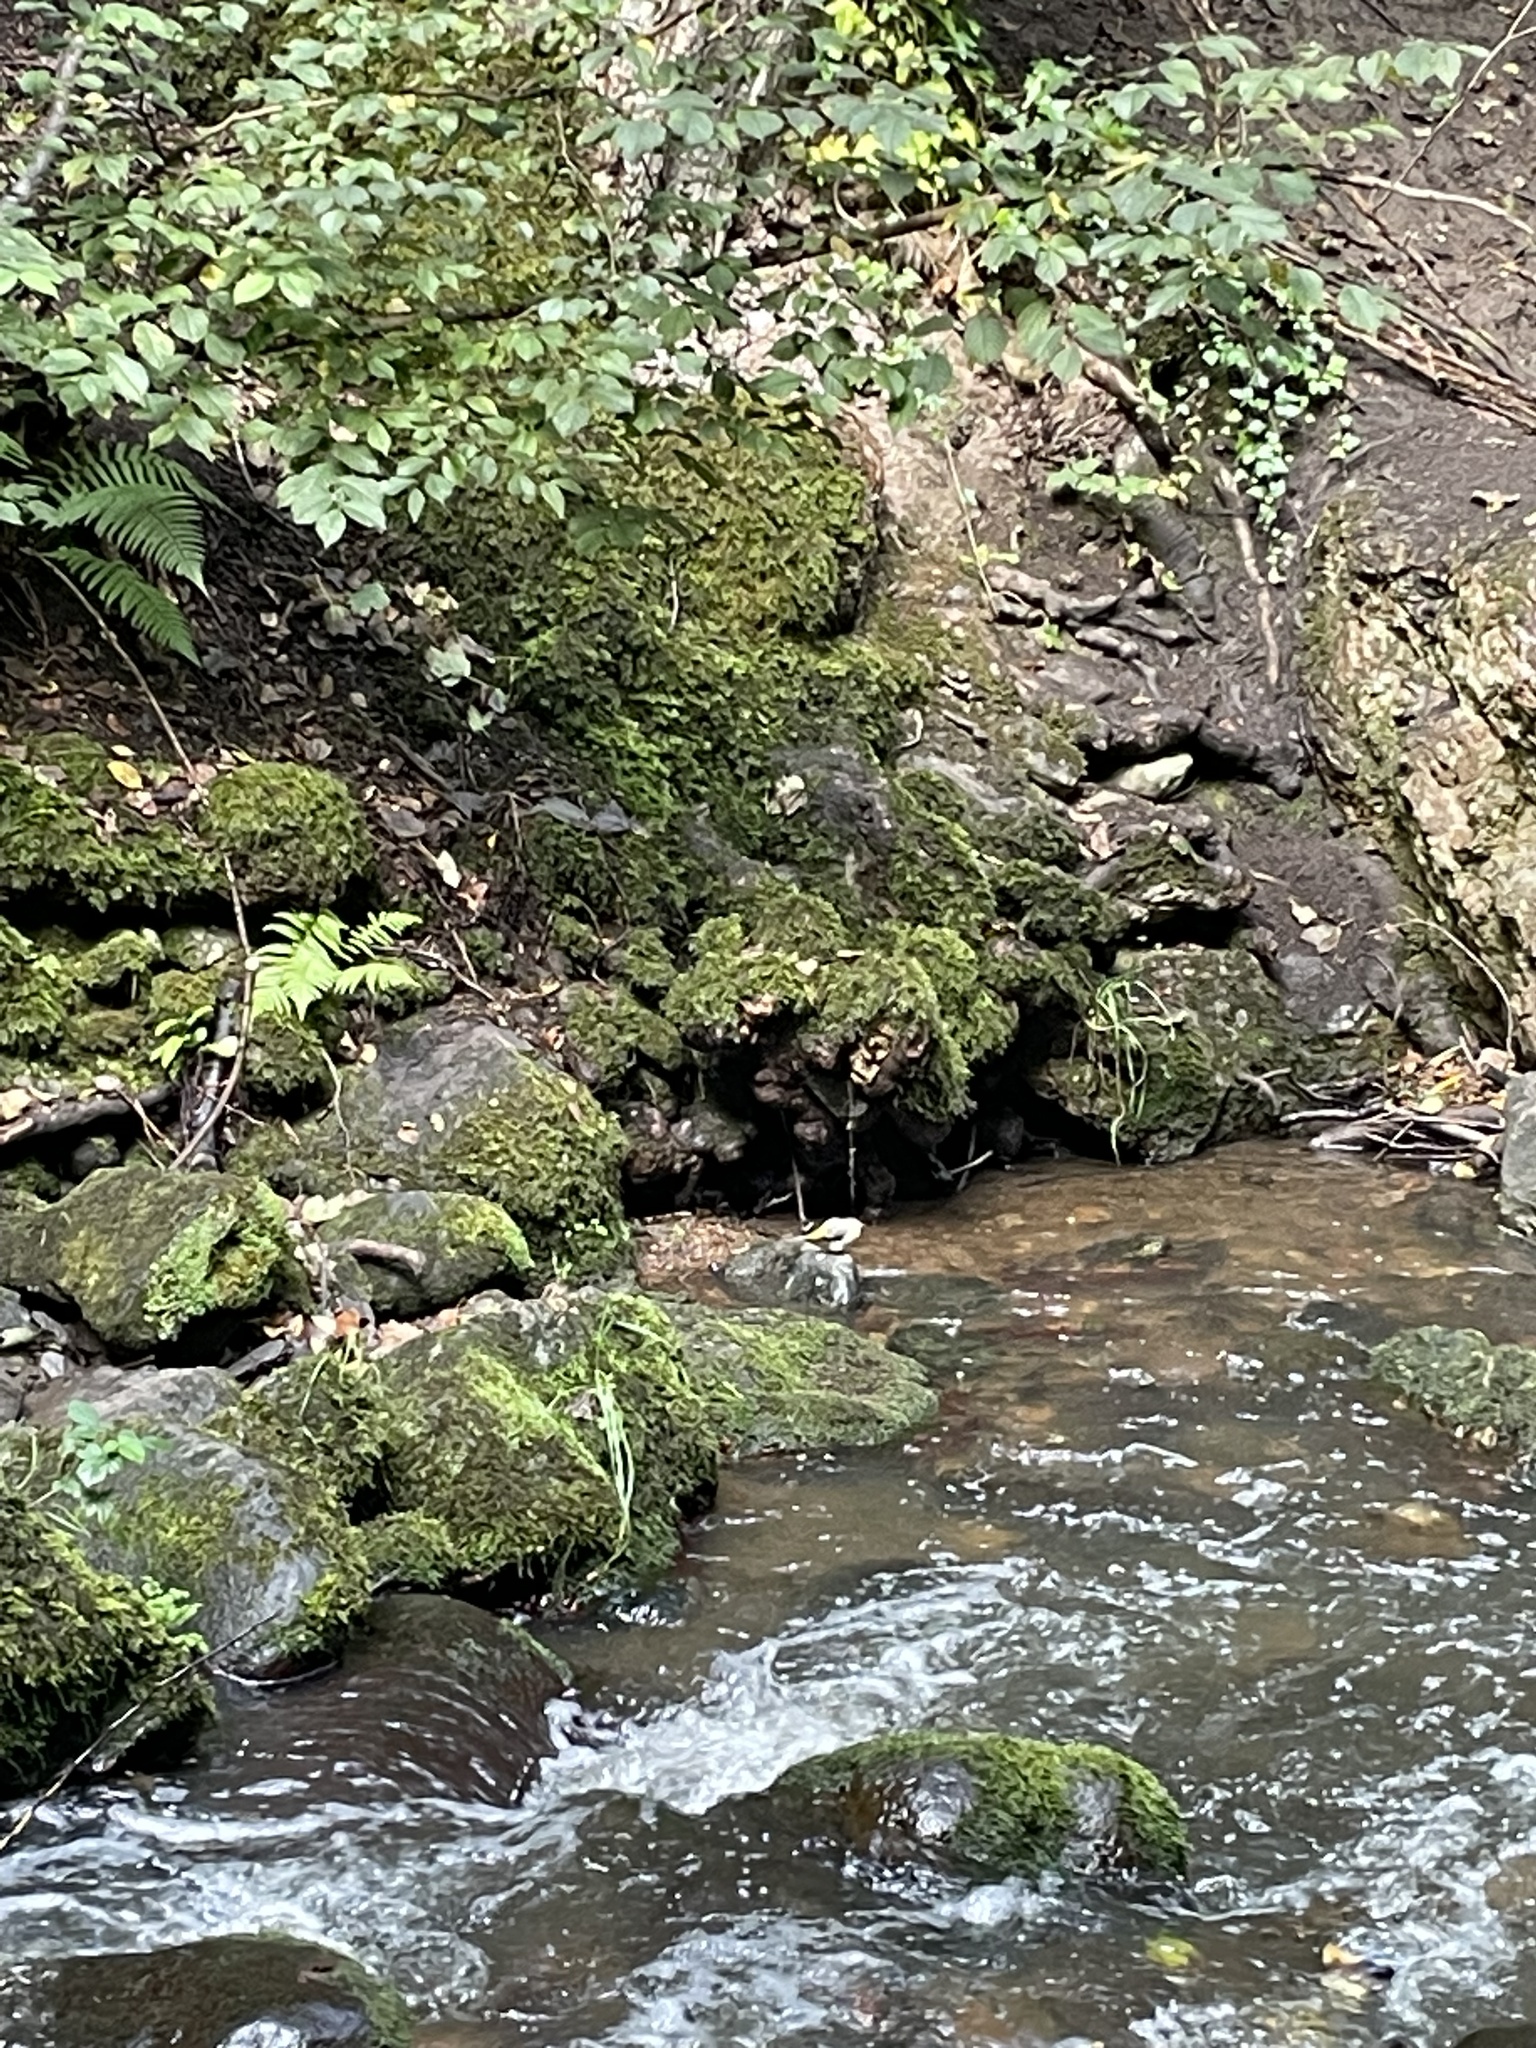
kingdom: Animalia
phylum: Chordata
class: Aves
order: Passeriformes
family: Motacillidae
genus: Motacilla
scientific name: Motacilla cinerea
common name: Grey wagtail
